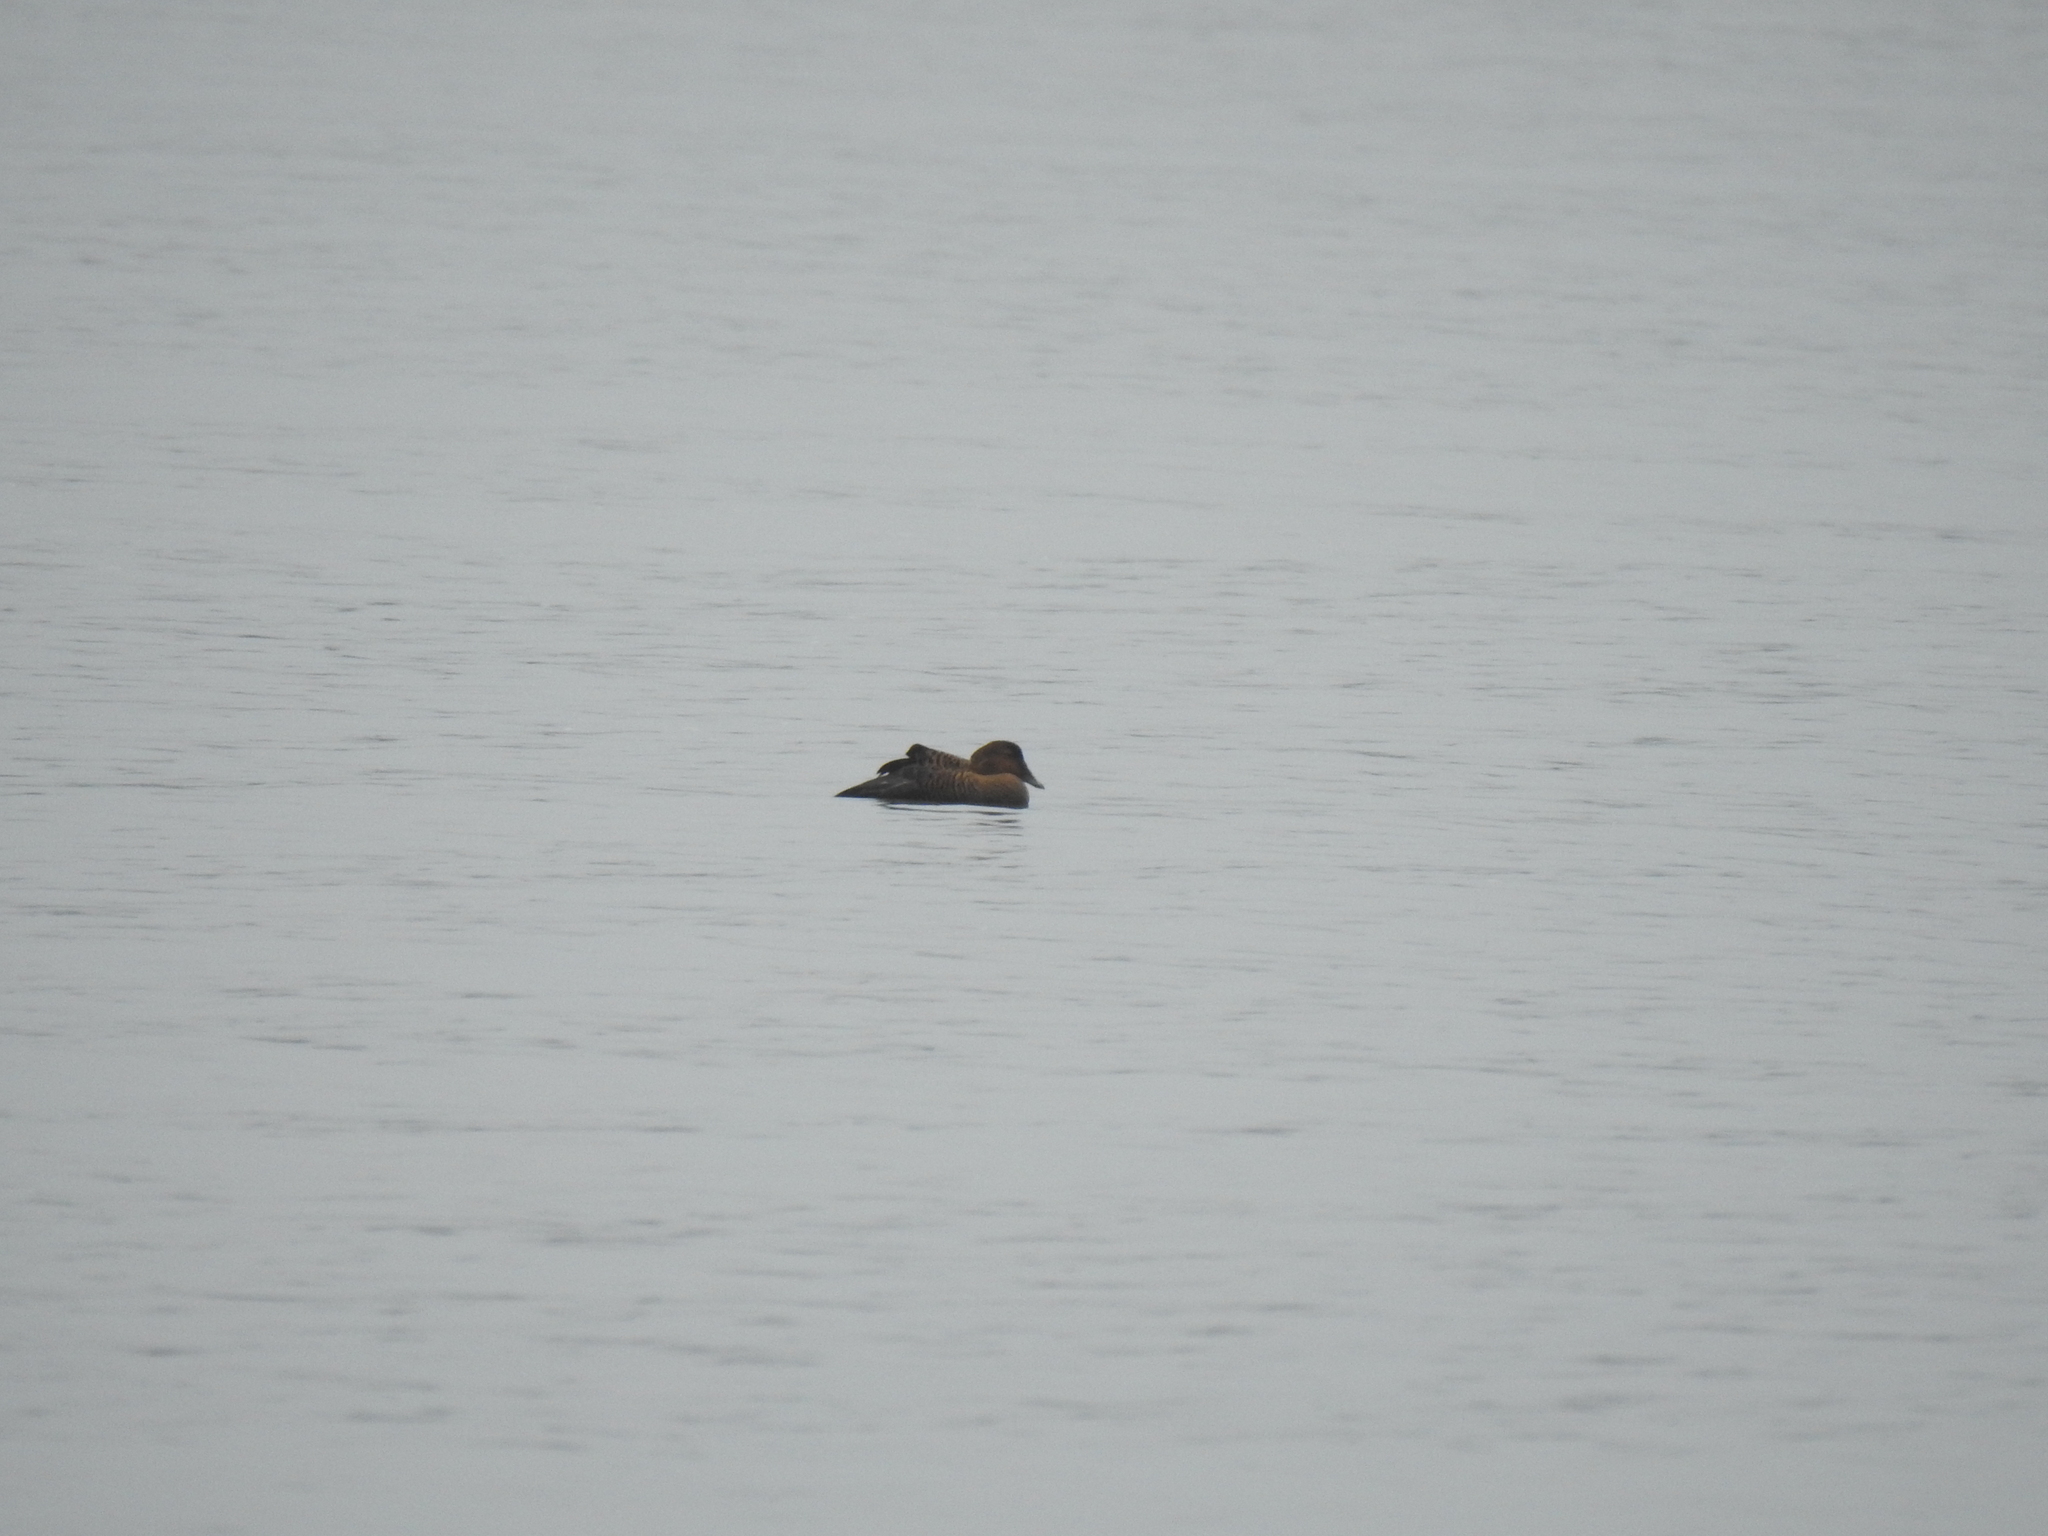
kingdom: Animalia
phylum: Chordata
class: Aves
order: Anseriformes
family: Anatidae
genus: Somateria
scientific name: Somateria mollissima
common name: Common eider
